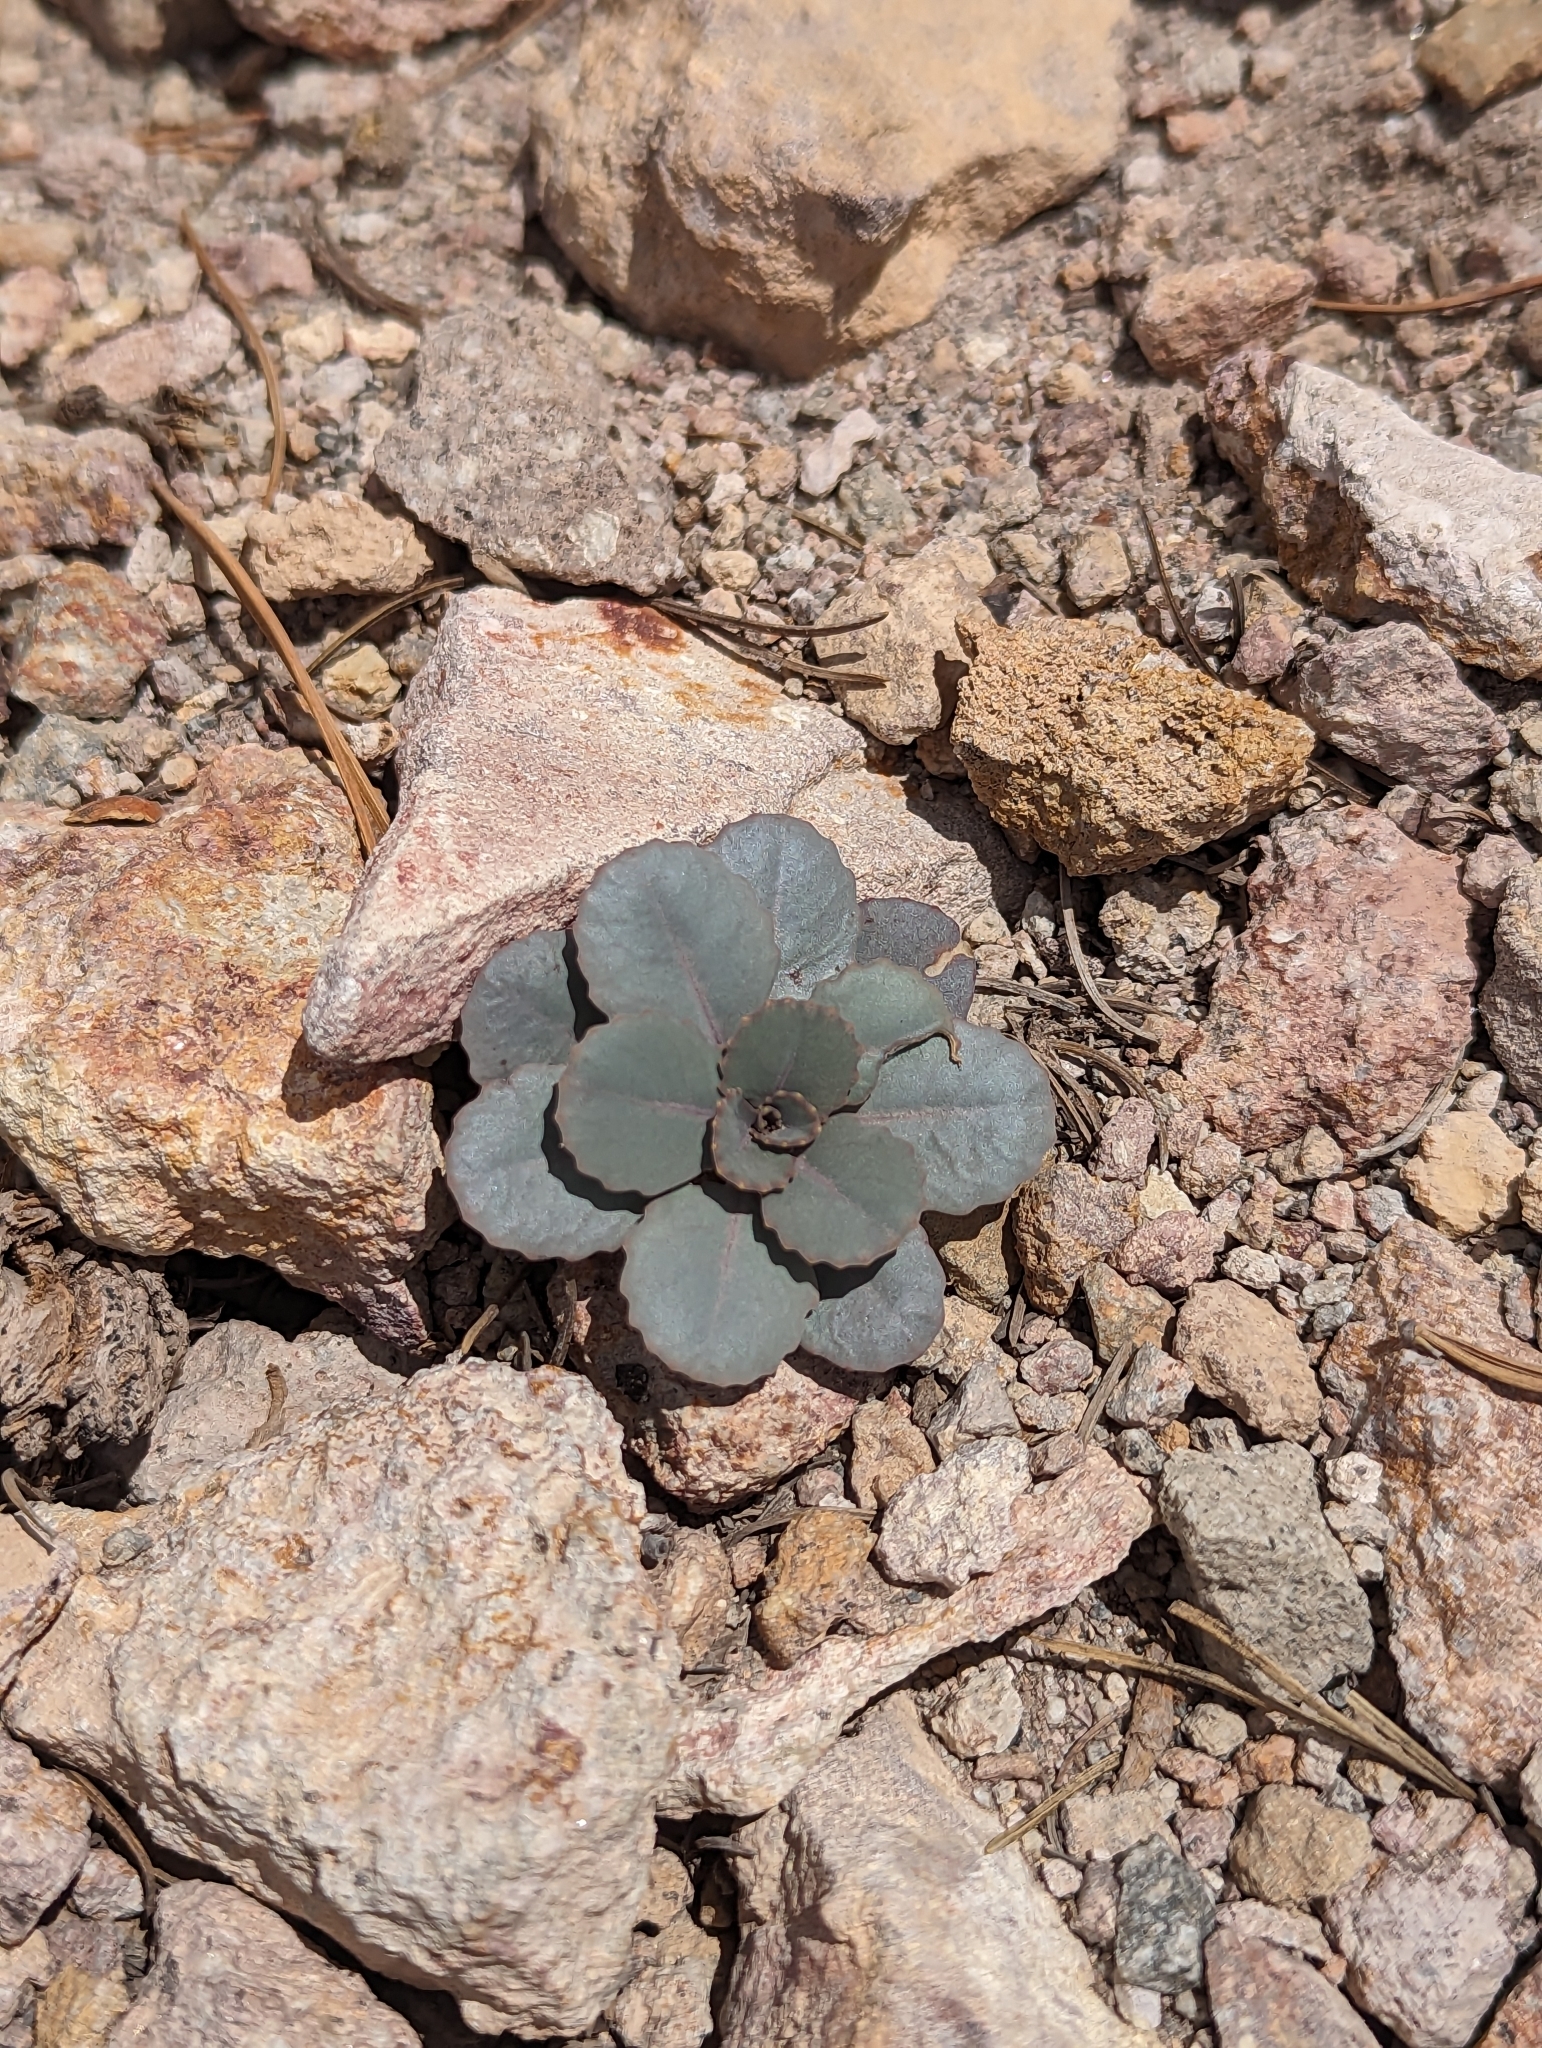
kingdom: Plantae
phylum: Tracheophyta
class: Magnoliopsida
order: Brassicales
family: Brassicaceae
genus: Streptanthus
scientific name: Streptanthus tortuosus
